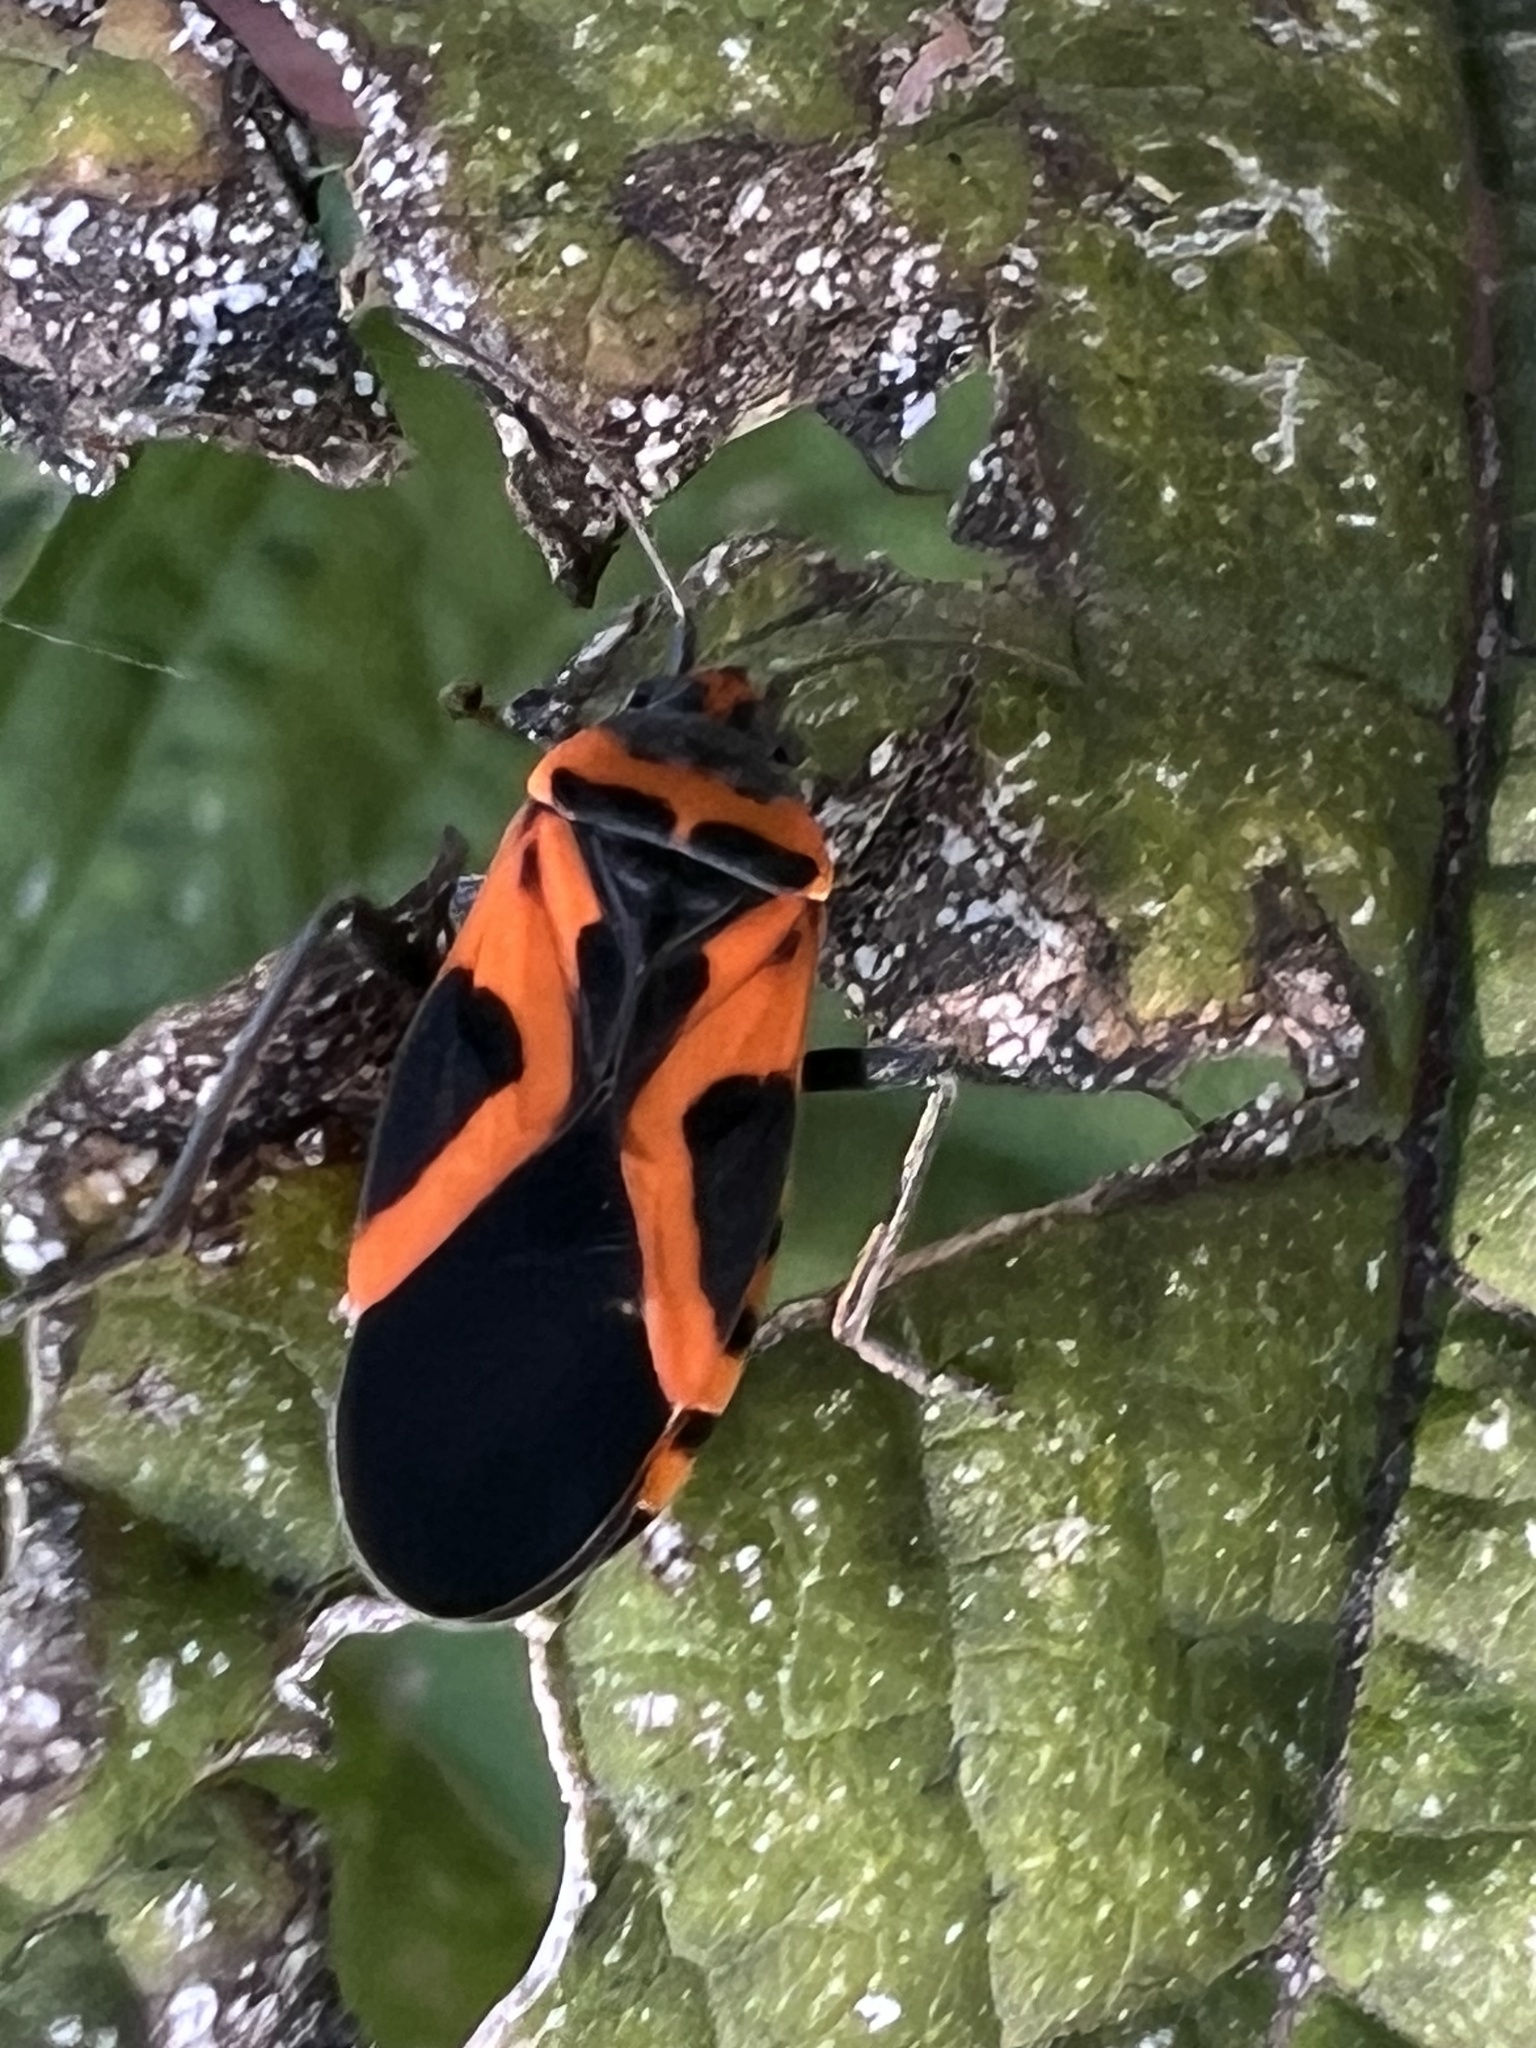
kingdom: Animalia
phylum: Arthropoda
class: Insecta
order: Hemiptera
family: Lygaeidae
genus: Lygaeus
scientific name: Lygaeus turcicus
